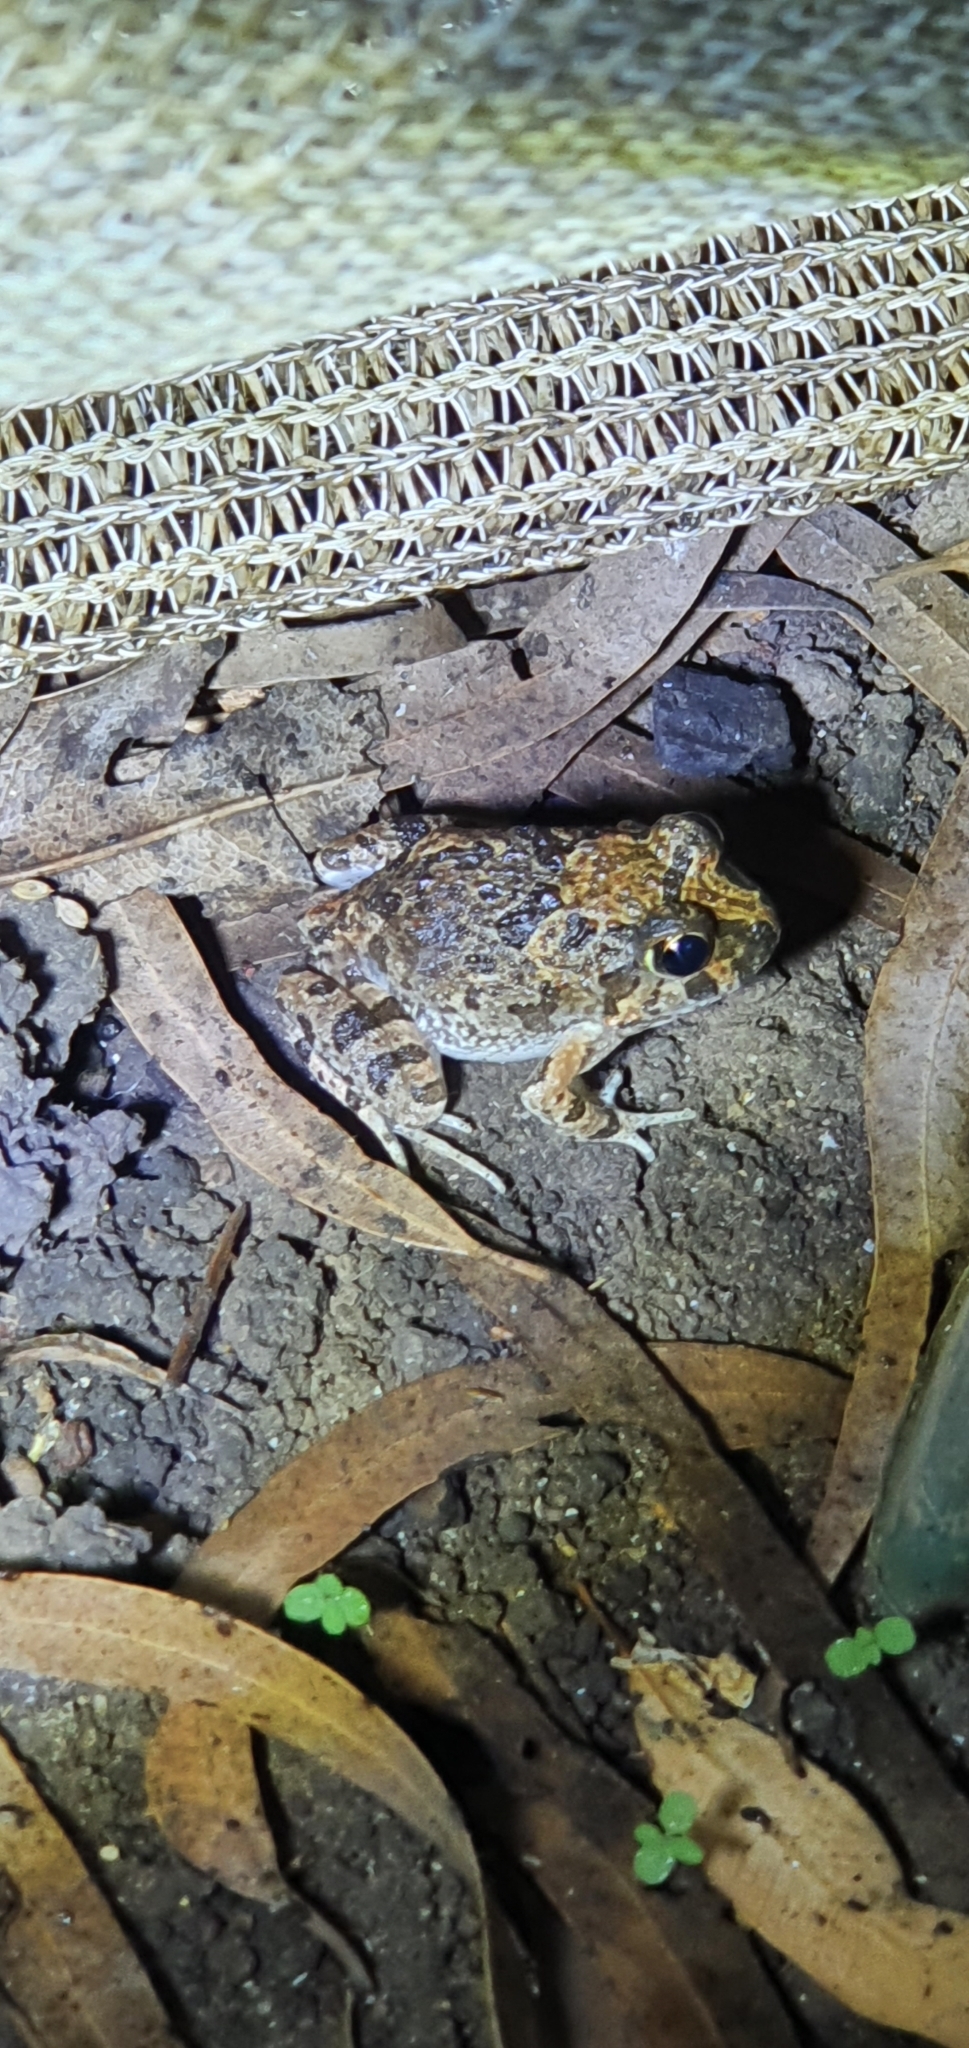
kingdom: Animalia
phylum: Chordata
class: Amphibia
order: Anura
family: Limnodynastidae
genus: Platyplectrum
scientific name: Platyplectrum ornatum
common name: Ornate burrowing frog
